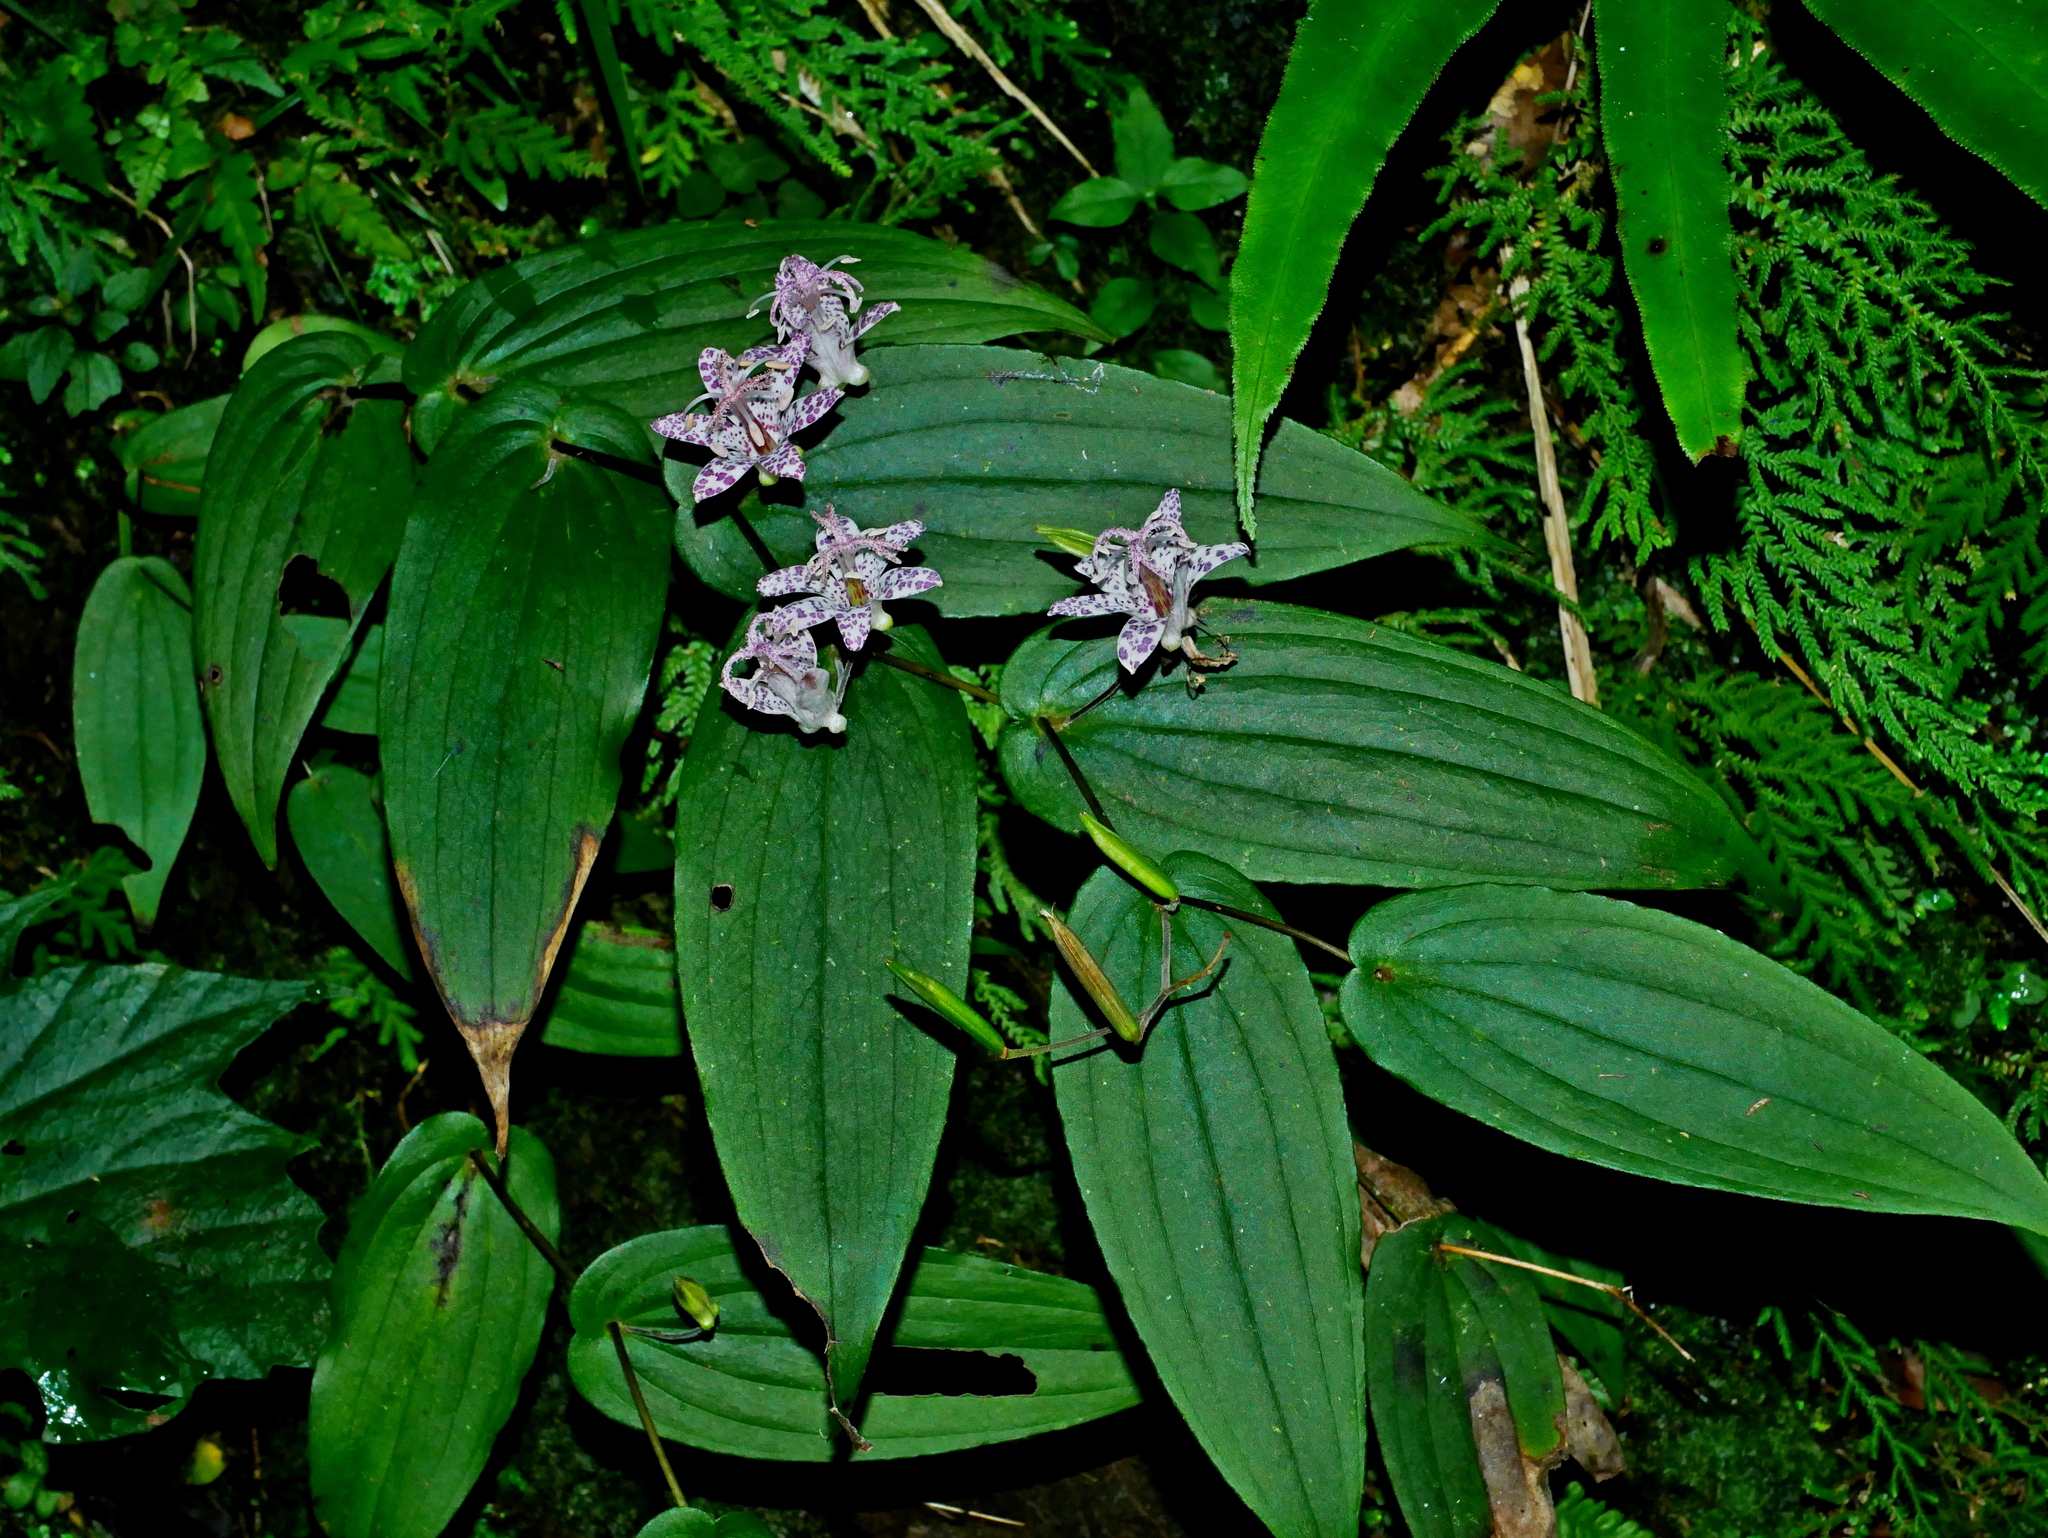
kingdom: Plantae
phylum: Tracheophyta
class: Liliopsida
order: Liliales
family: Liliaceae
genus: Tricyrtis
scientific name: Tricyrtis suzukii
